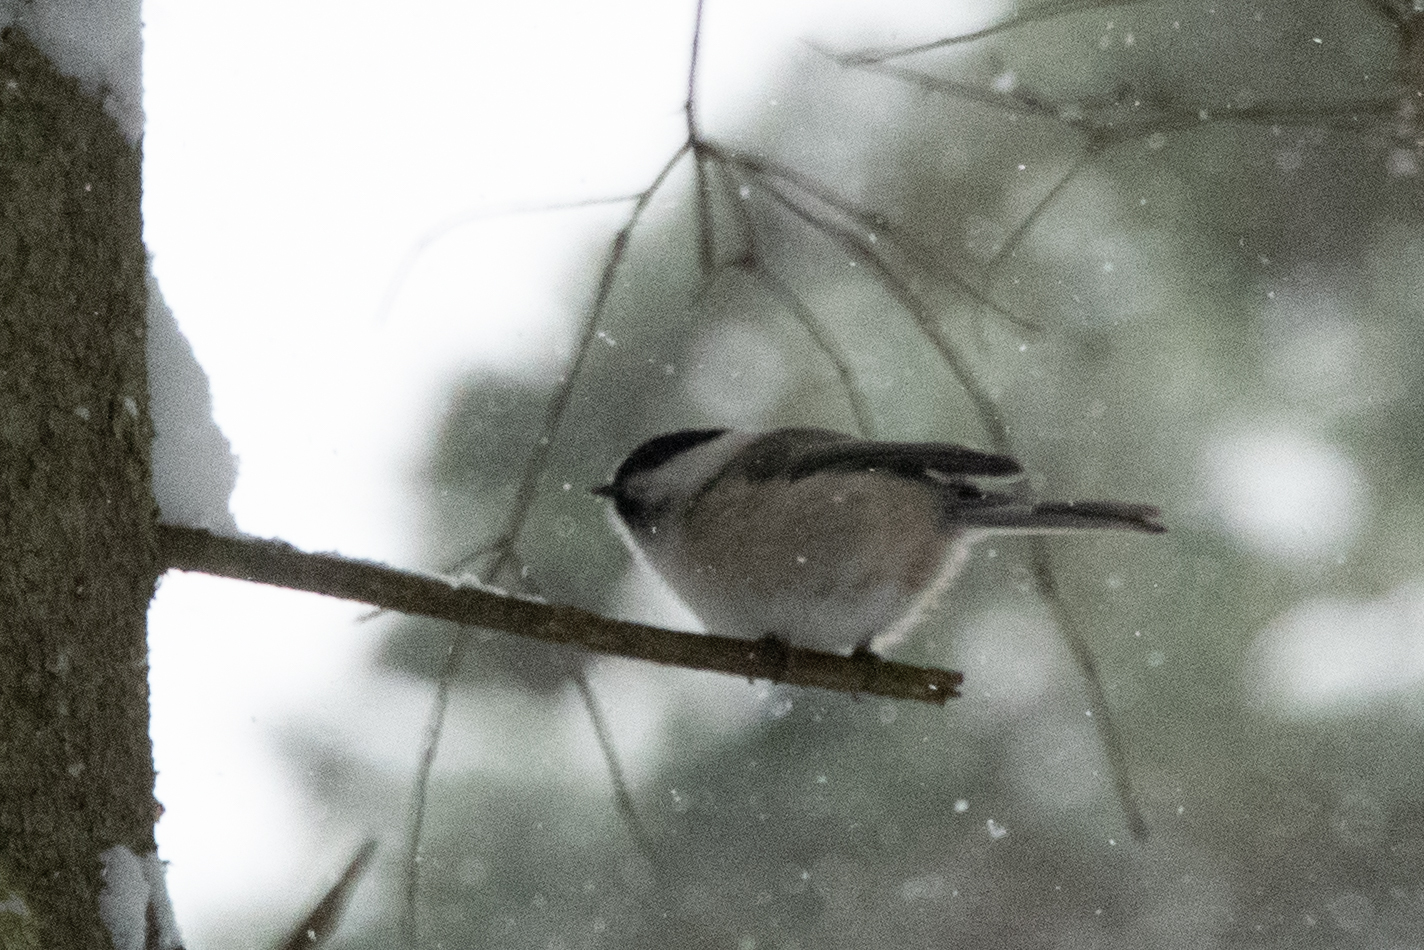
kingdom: Animalia
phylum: Chordata
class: Aves
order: Passeriformes
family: Paridae
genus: Poecile
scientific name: Poecile montanus
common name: Willow tit
